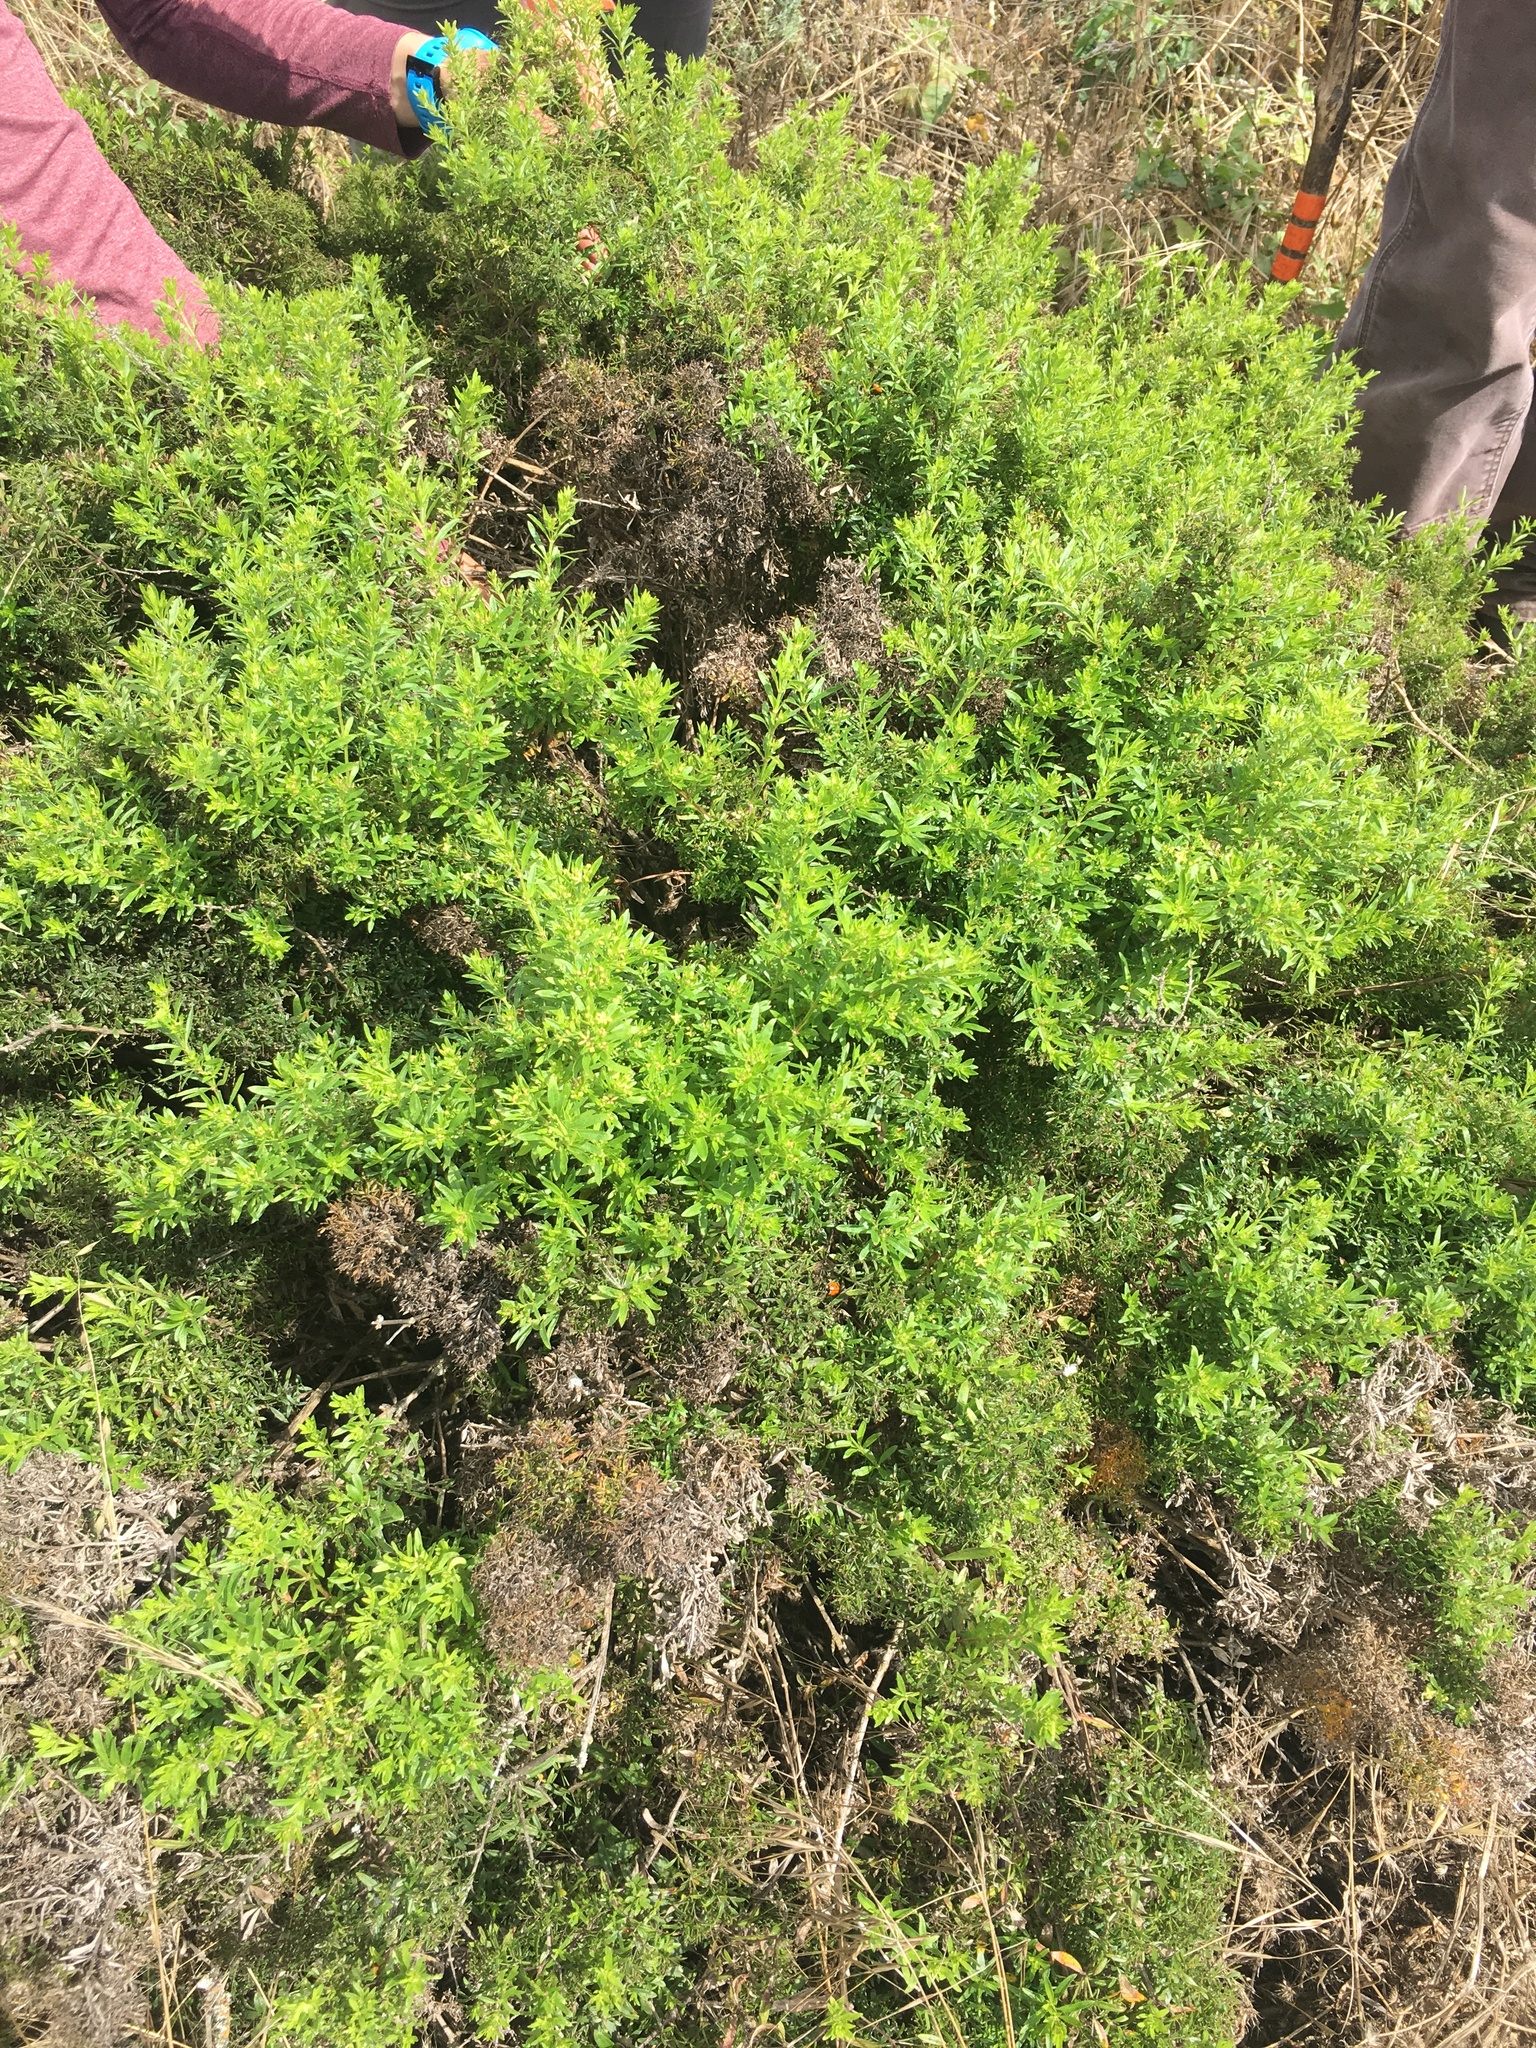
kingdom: Plantae
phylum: Tracheophyta
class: Magnoliopsida
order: Gentianales
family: Rubiaceae
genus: Galium
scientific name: Galium catalinense
